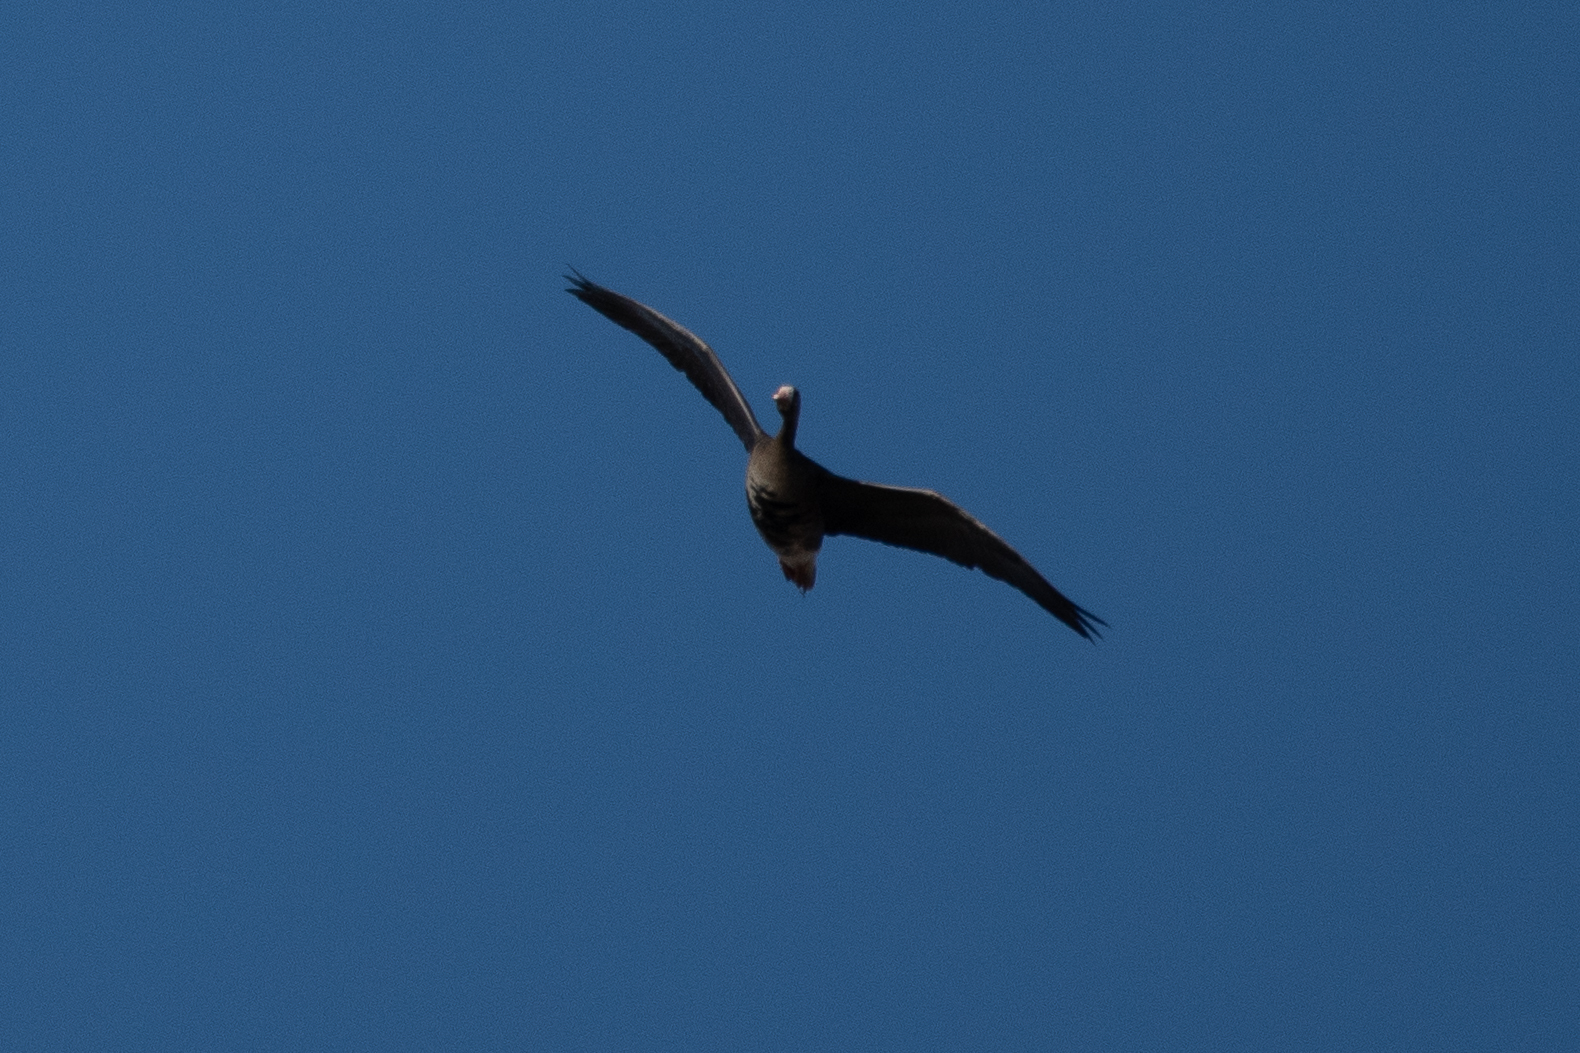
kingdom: Animalia
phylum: Chordata
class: Aves
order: Anseriformes
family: Anatidae
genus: Anser
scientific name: Anser albifrons
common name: Greater white-fronted goose
